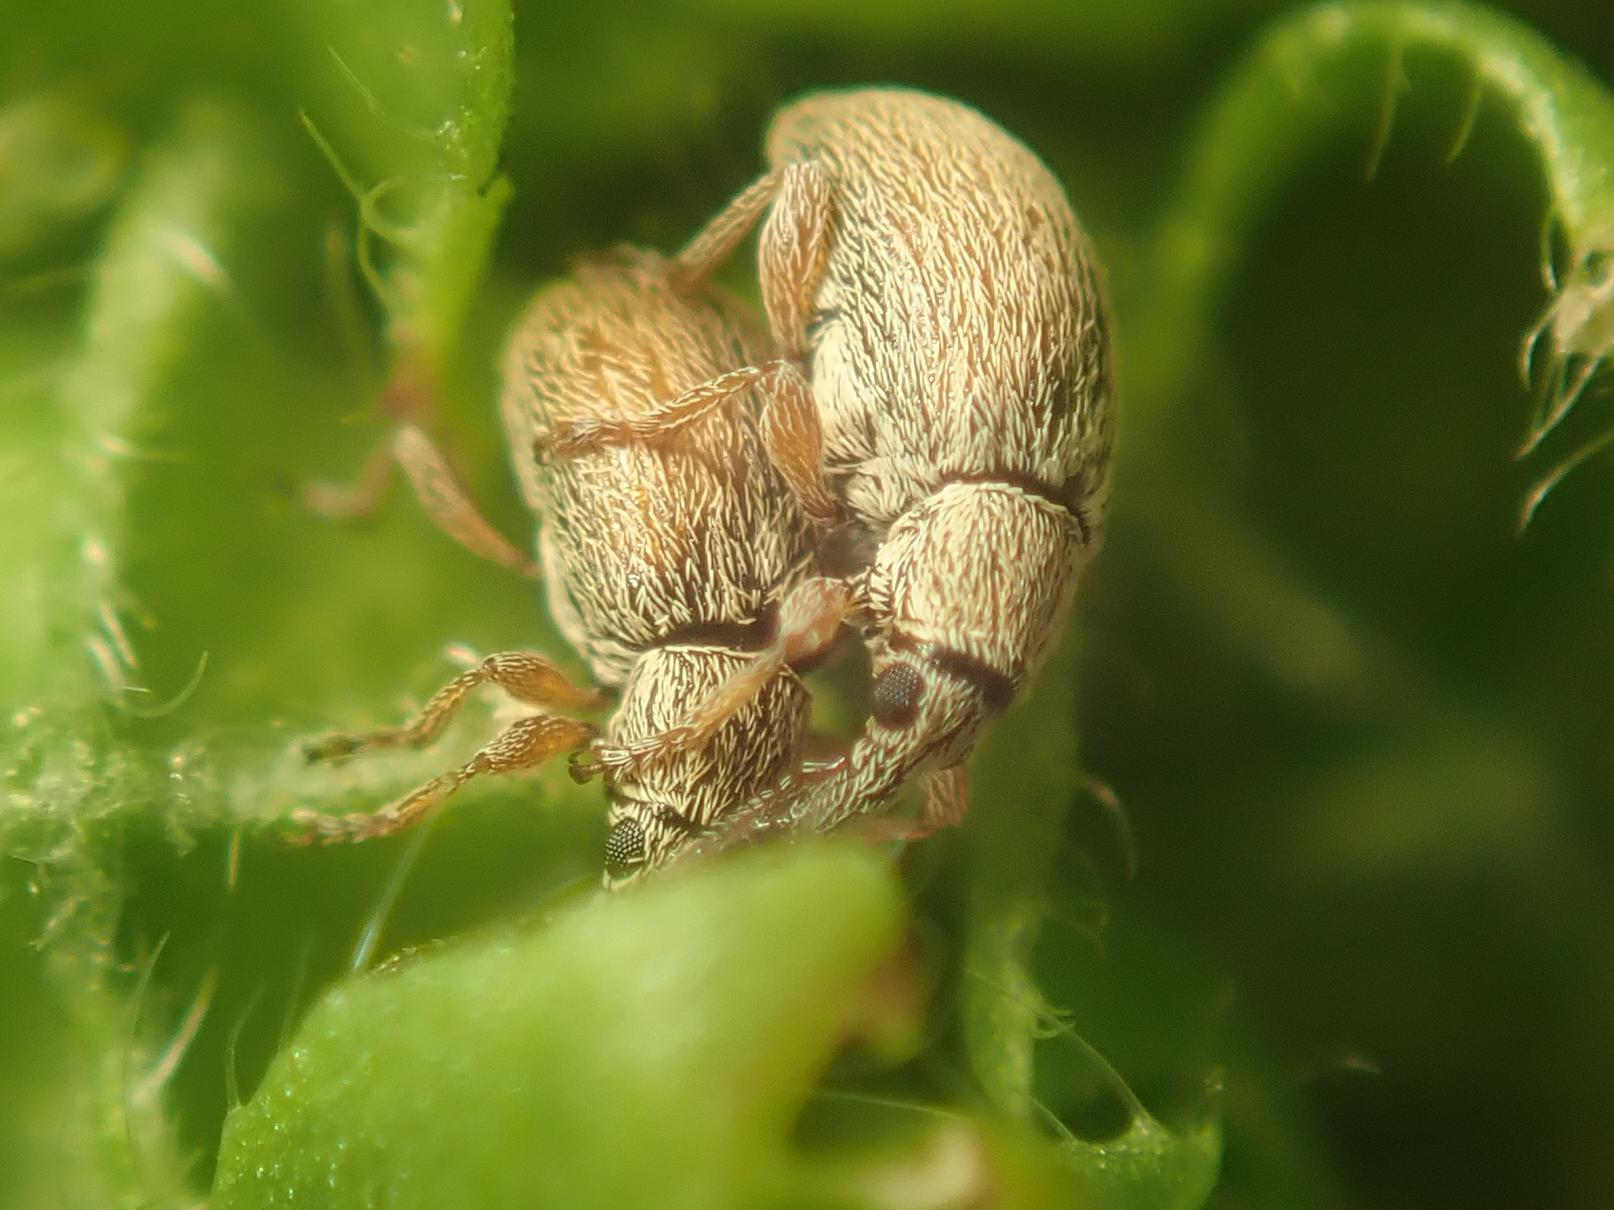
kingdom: Animalia
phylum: Arthropoda
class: Insecta
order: Coleoptera
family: Apionidae
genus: Malvapion
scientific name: Malvapion malvae
